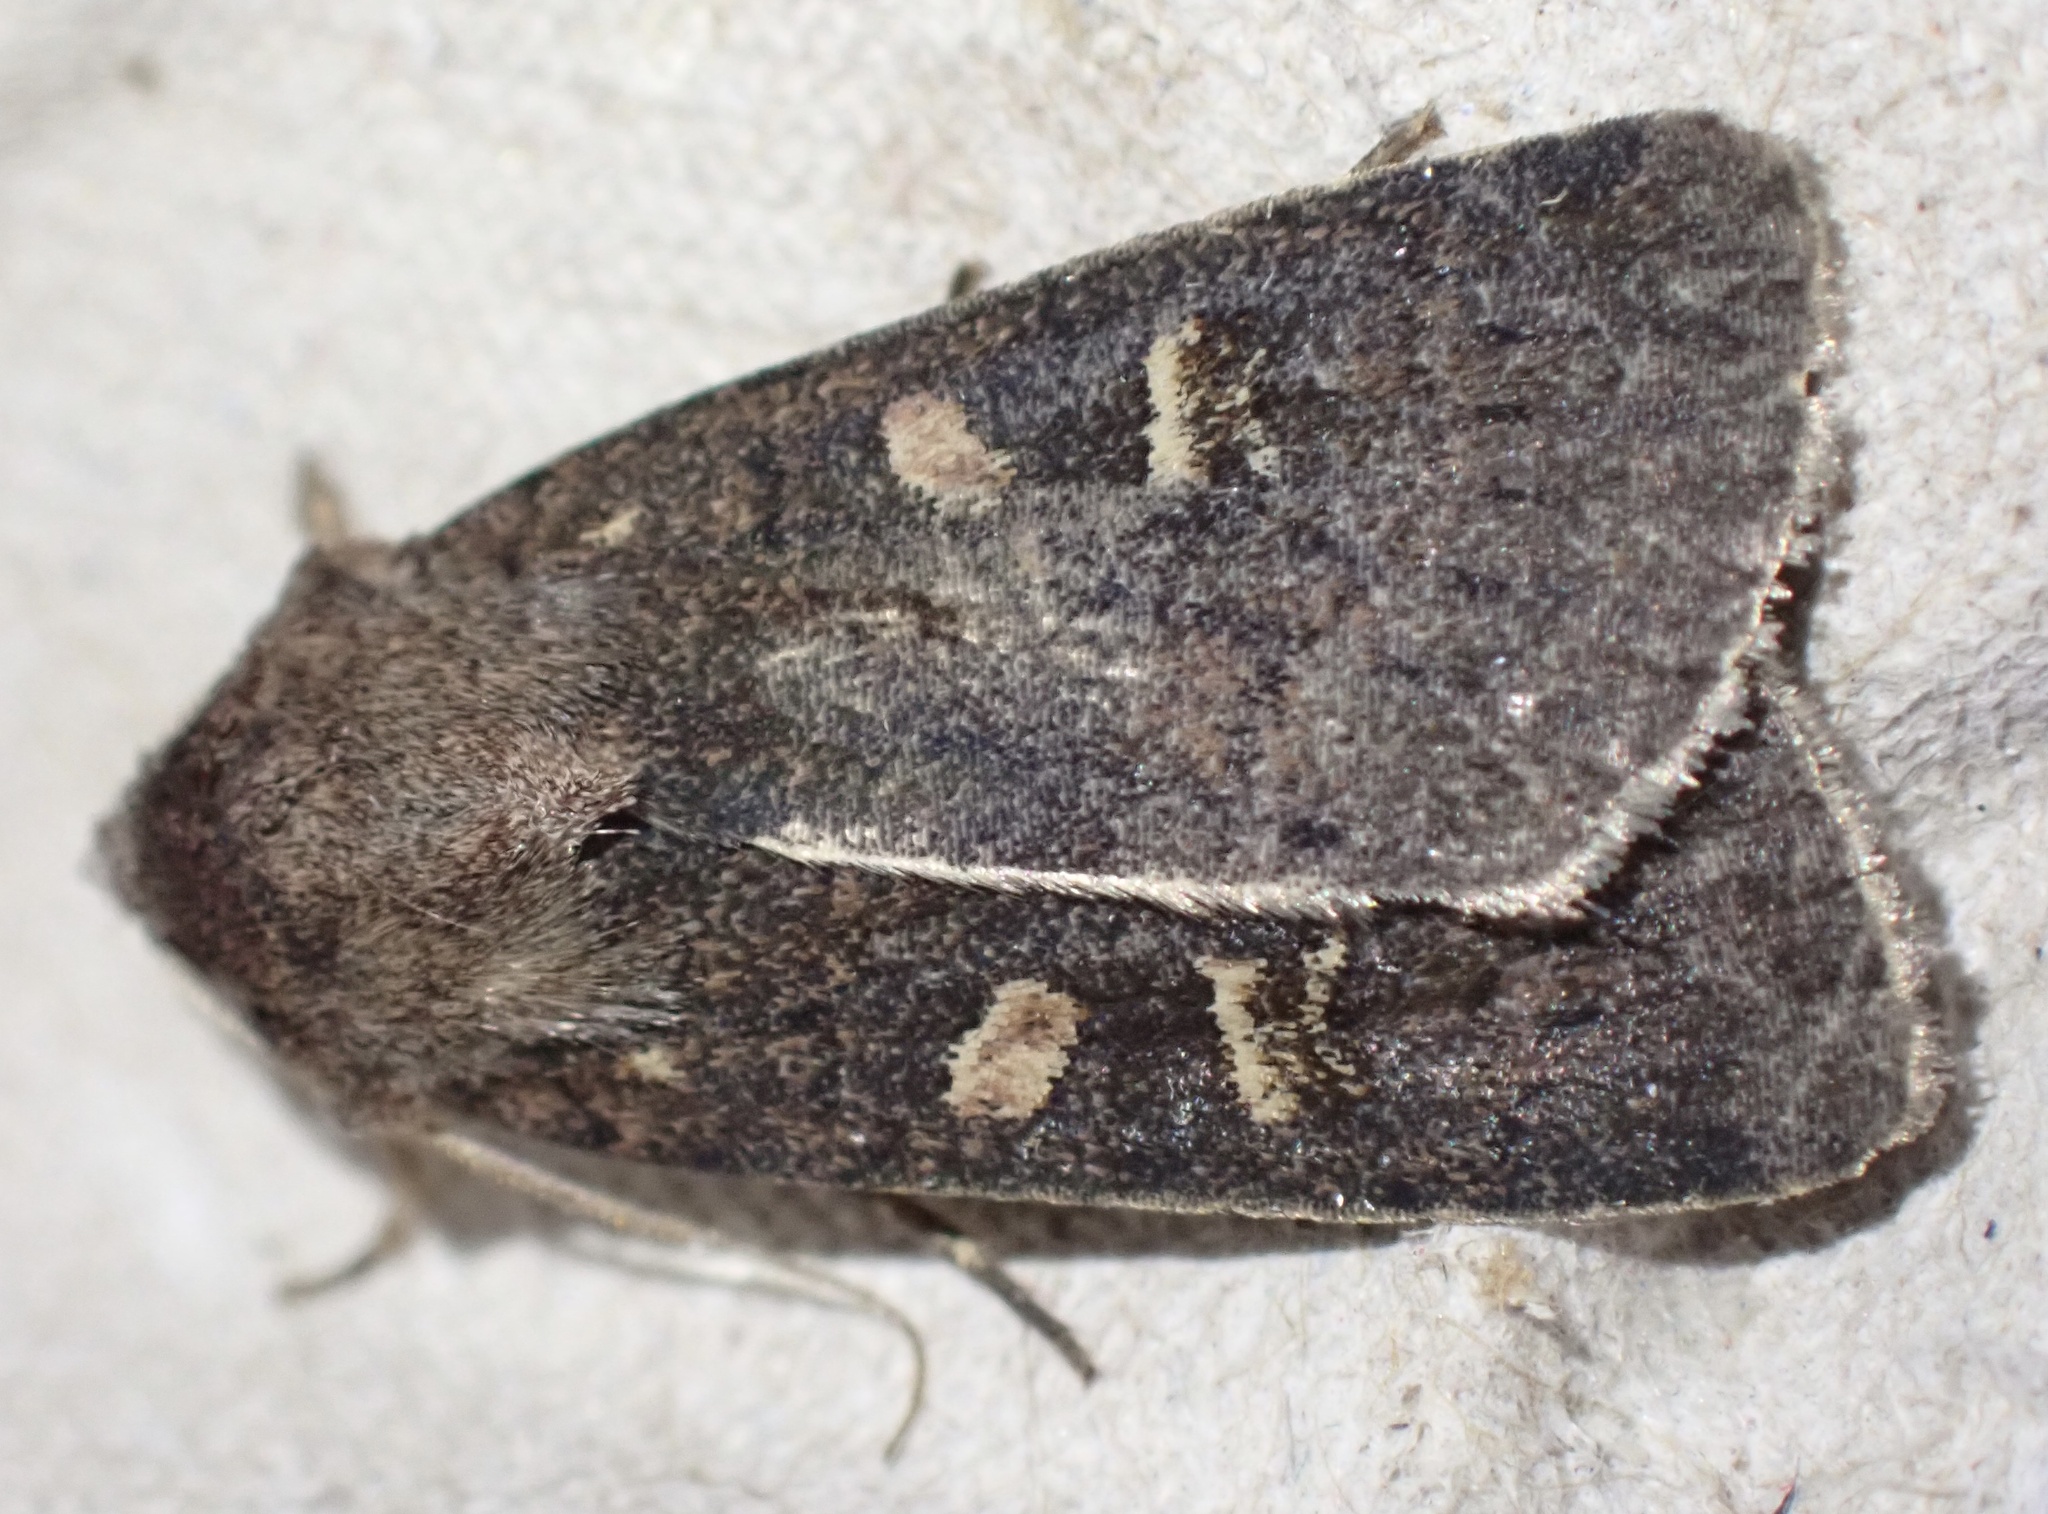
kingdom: Animalia
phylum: Arthropoda
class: Insecta
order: Lepidoptera
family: Noctuidae
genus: Xestia
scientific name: Xestia xanthographa
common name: Square-spot rustic
